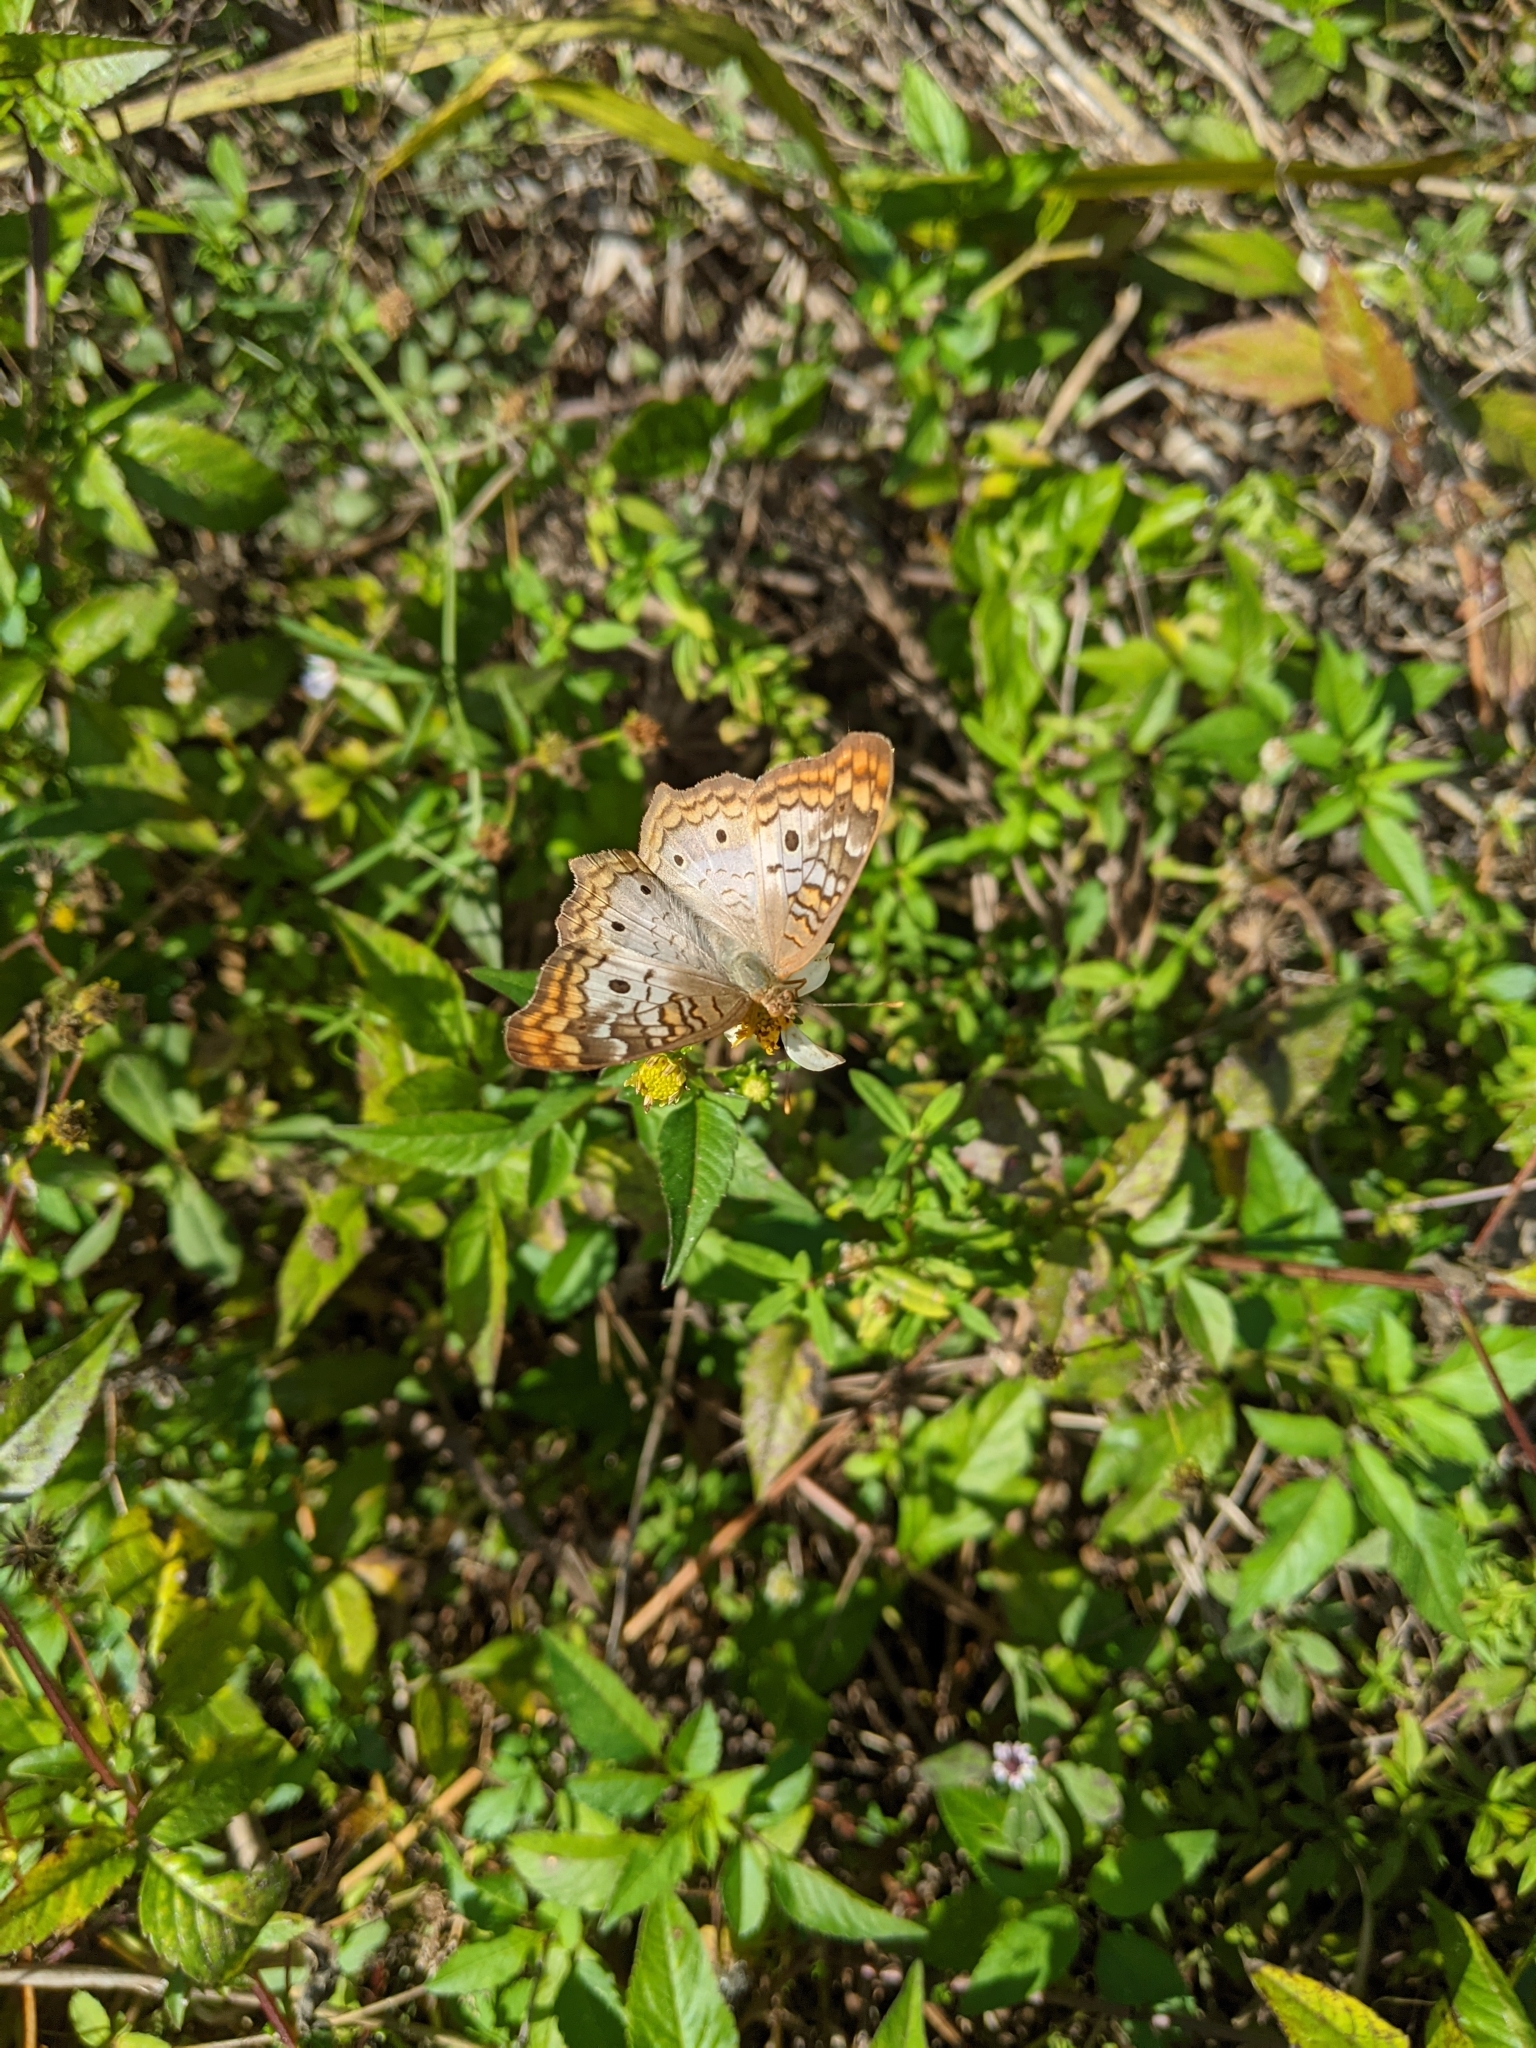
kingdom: Animalia
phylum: Arthropoda
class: Insecta
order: Lepidoptera
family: Nymphalidae
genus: Anartia
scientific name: Anartia jatrophae
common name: White peacock
